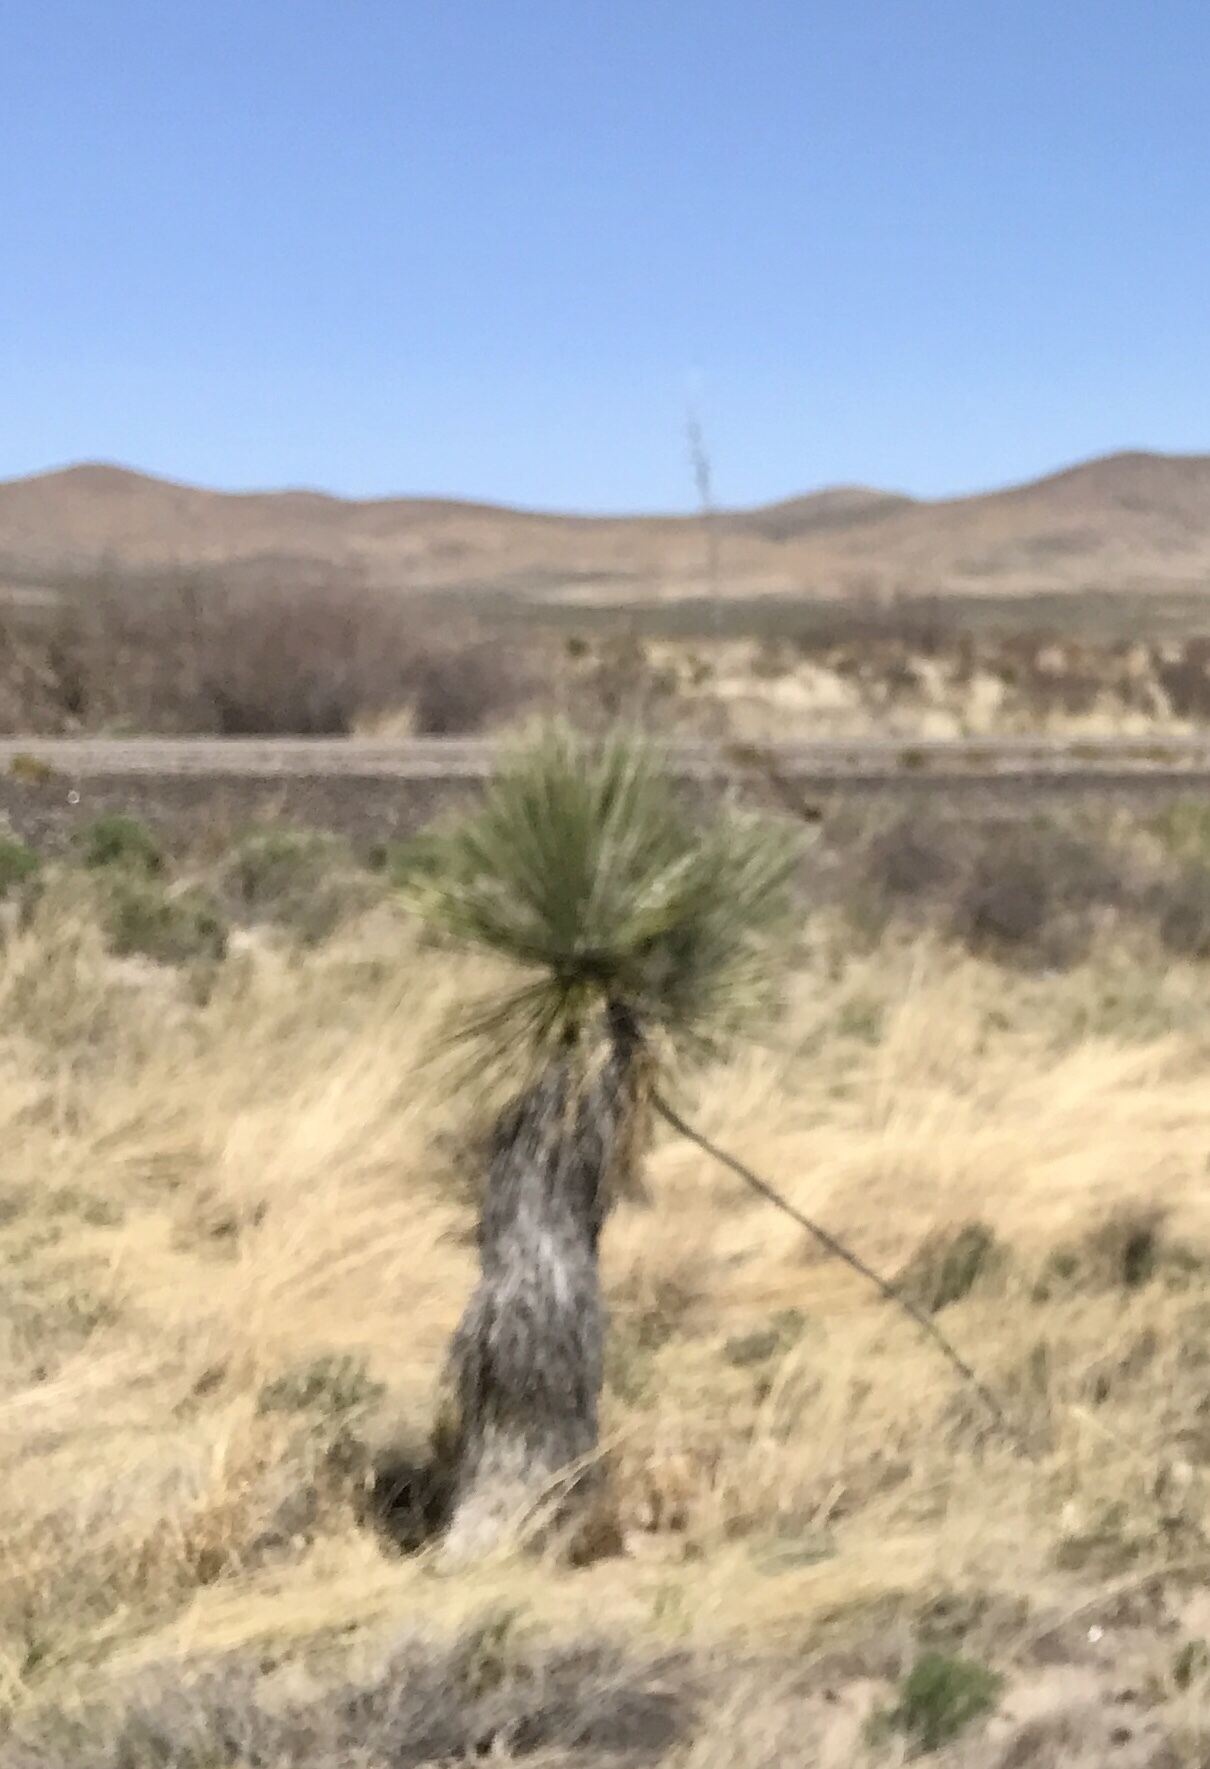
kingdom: Plantae
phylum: Tracheophyta
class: Liliopsida
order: Asparagales
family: Asparagaceae
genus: Yucca
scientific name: Yucca elata
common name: Palmella
